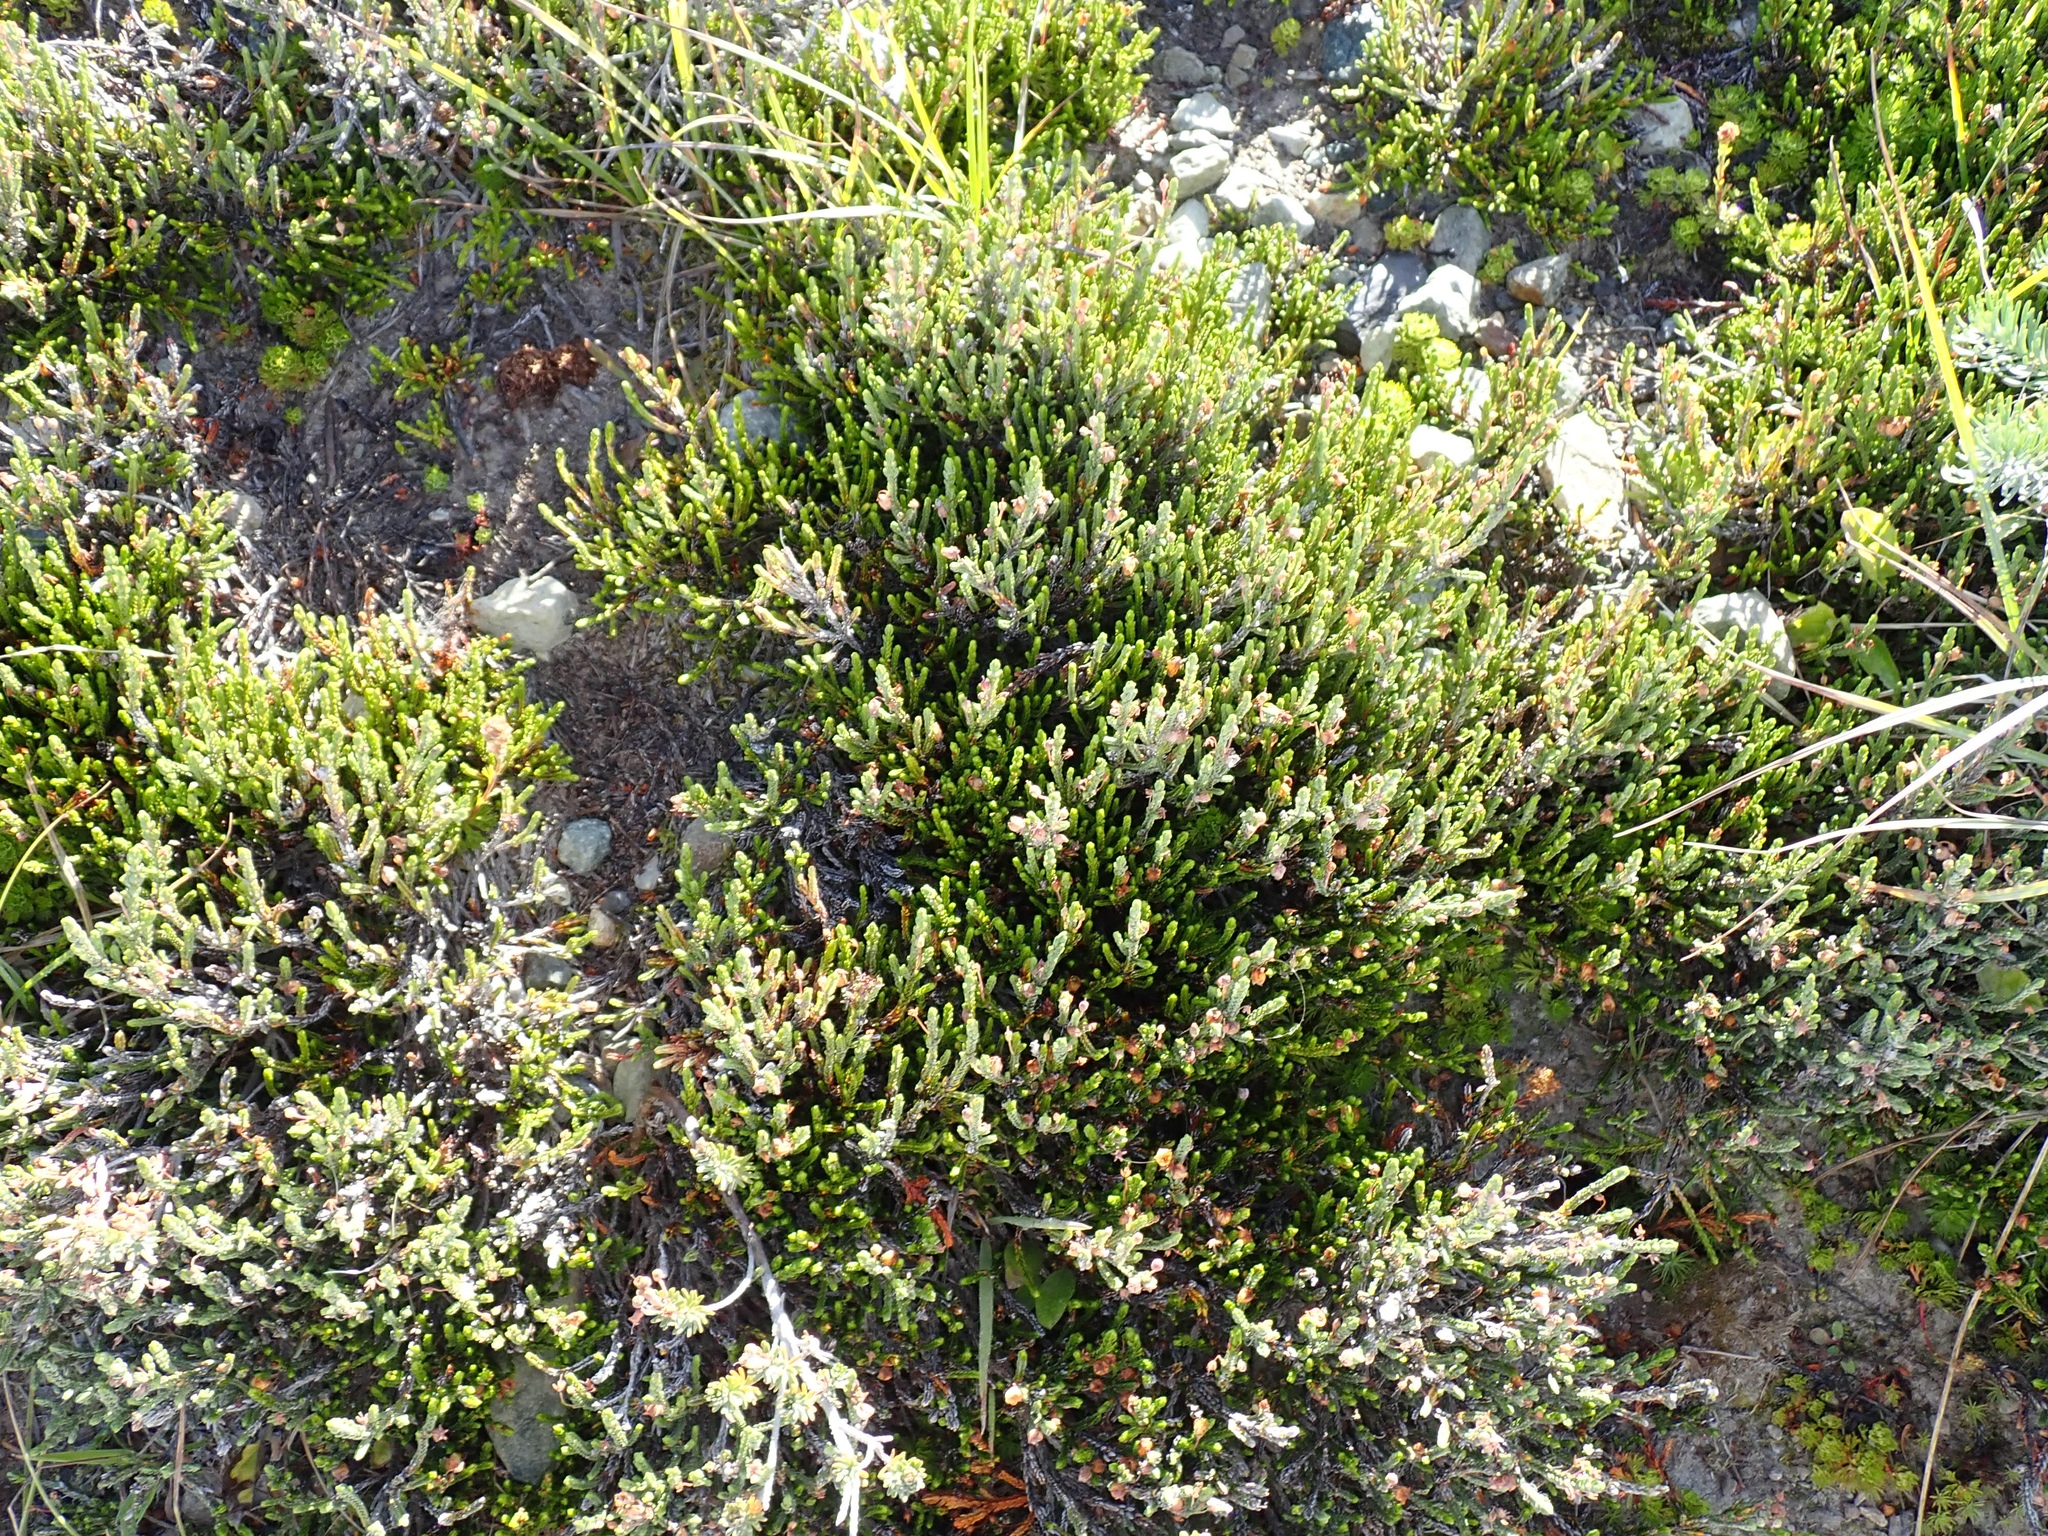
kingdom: Plantae
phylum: Tracheophyta
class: Magnoliopsida
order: Ericales
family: Ericaceae
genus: Phyllodoce
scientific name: Phyllodoce empetriformis
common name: Pink mountain heather
